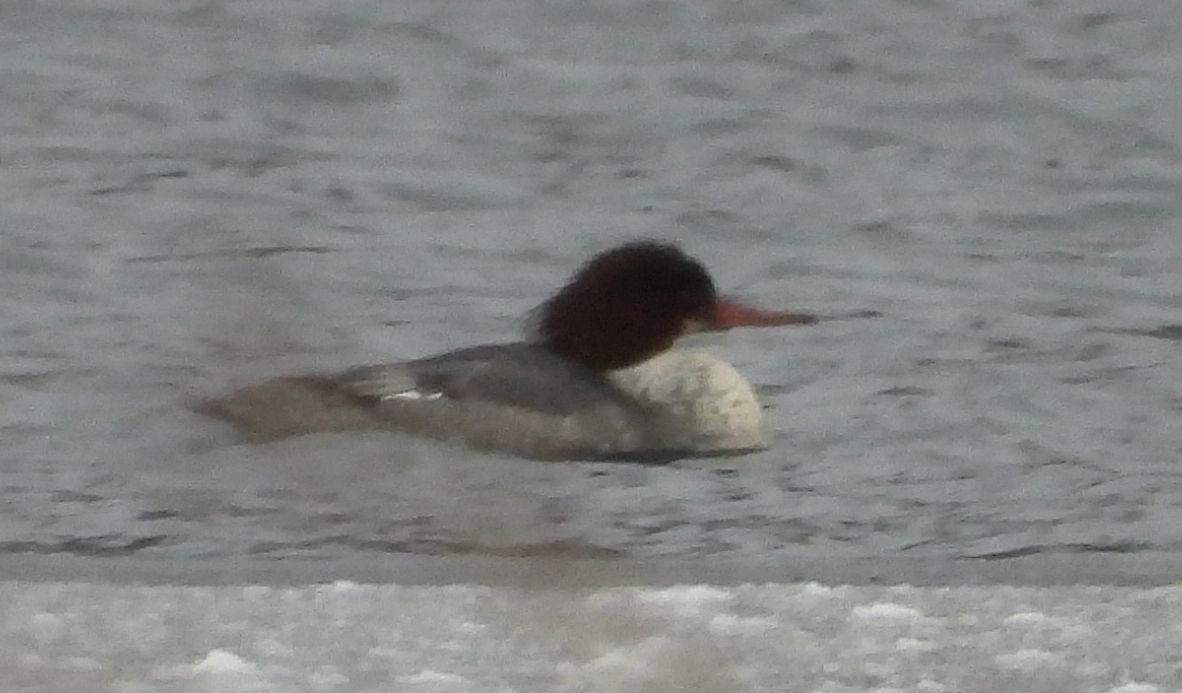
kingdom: Animalia
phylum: Chordata
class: Aves
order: Anseriformes
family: Anatidae
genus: Mergus
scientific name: Mergus merganser
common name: Common merganser
